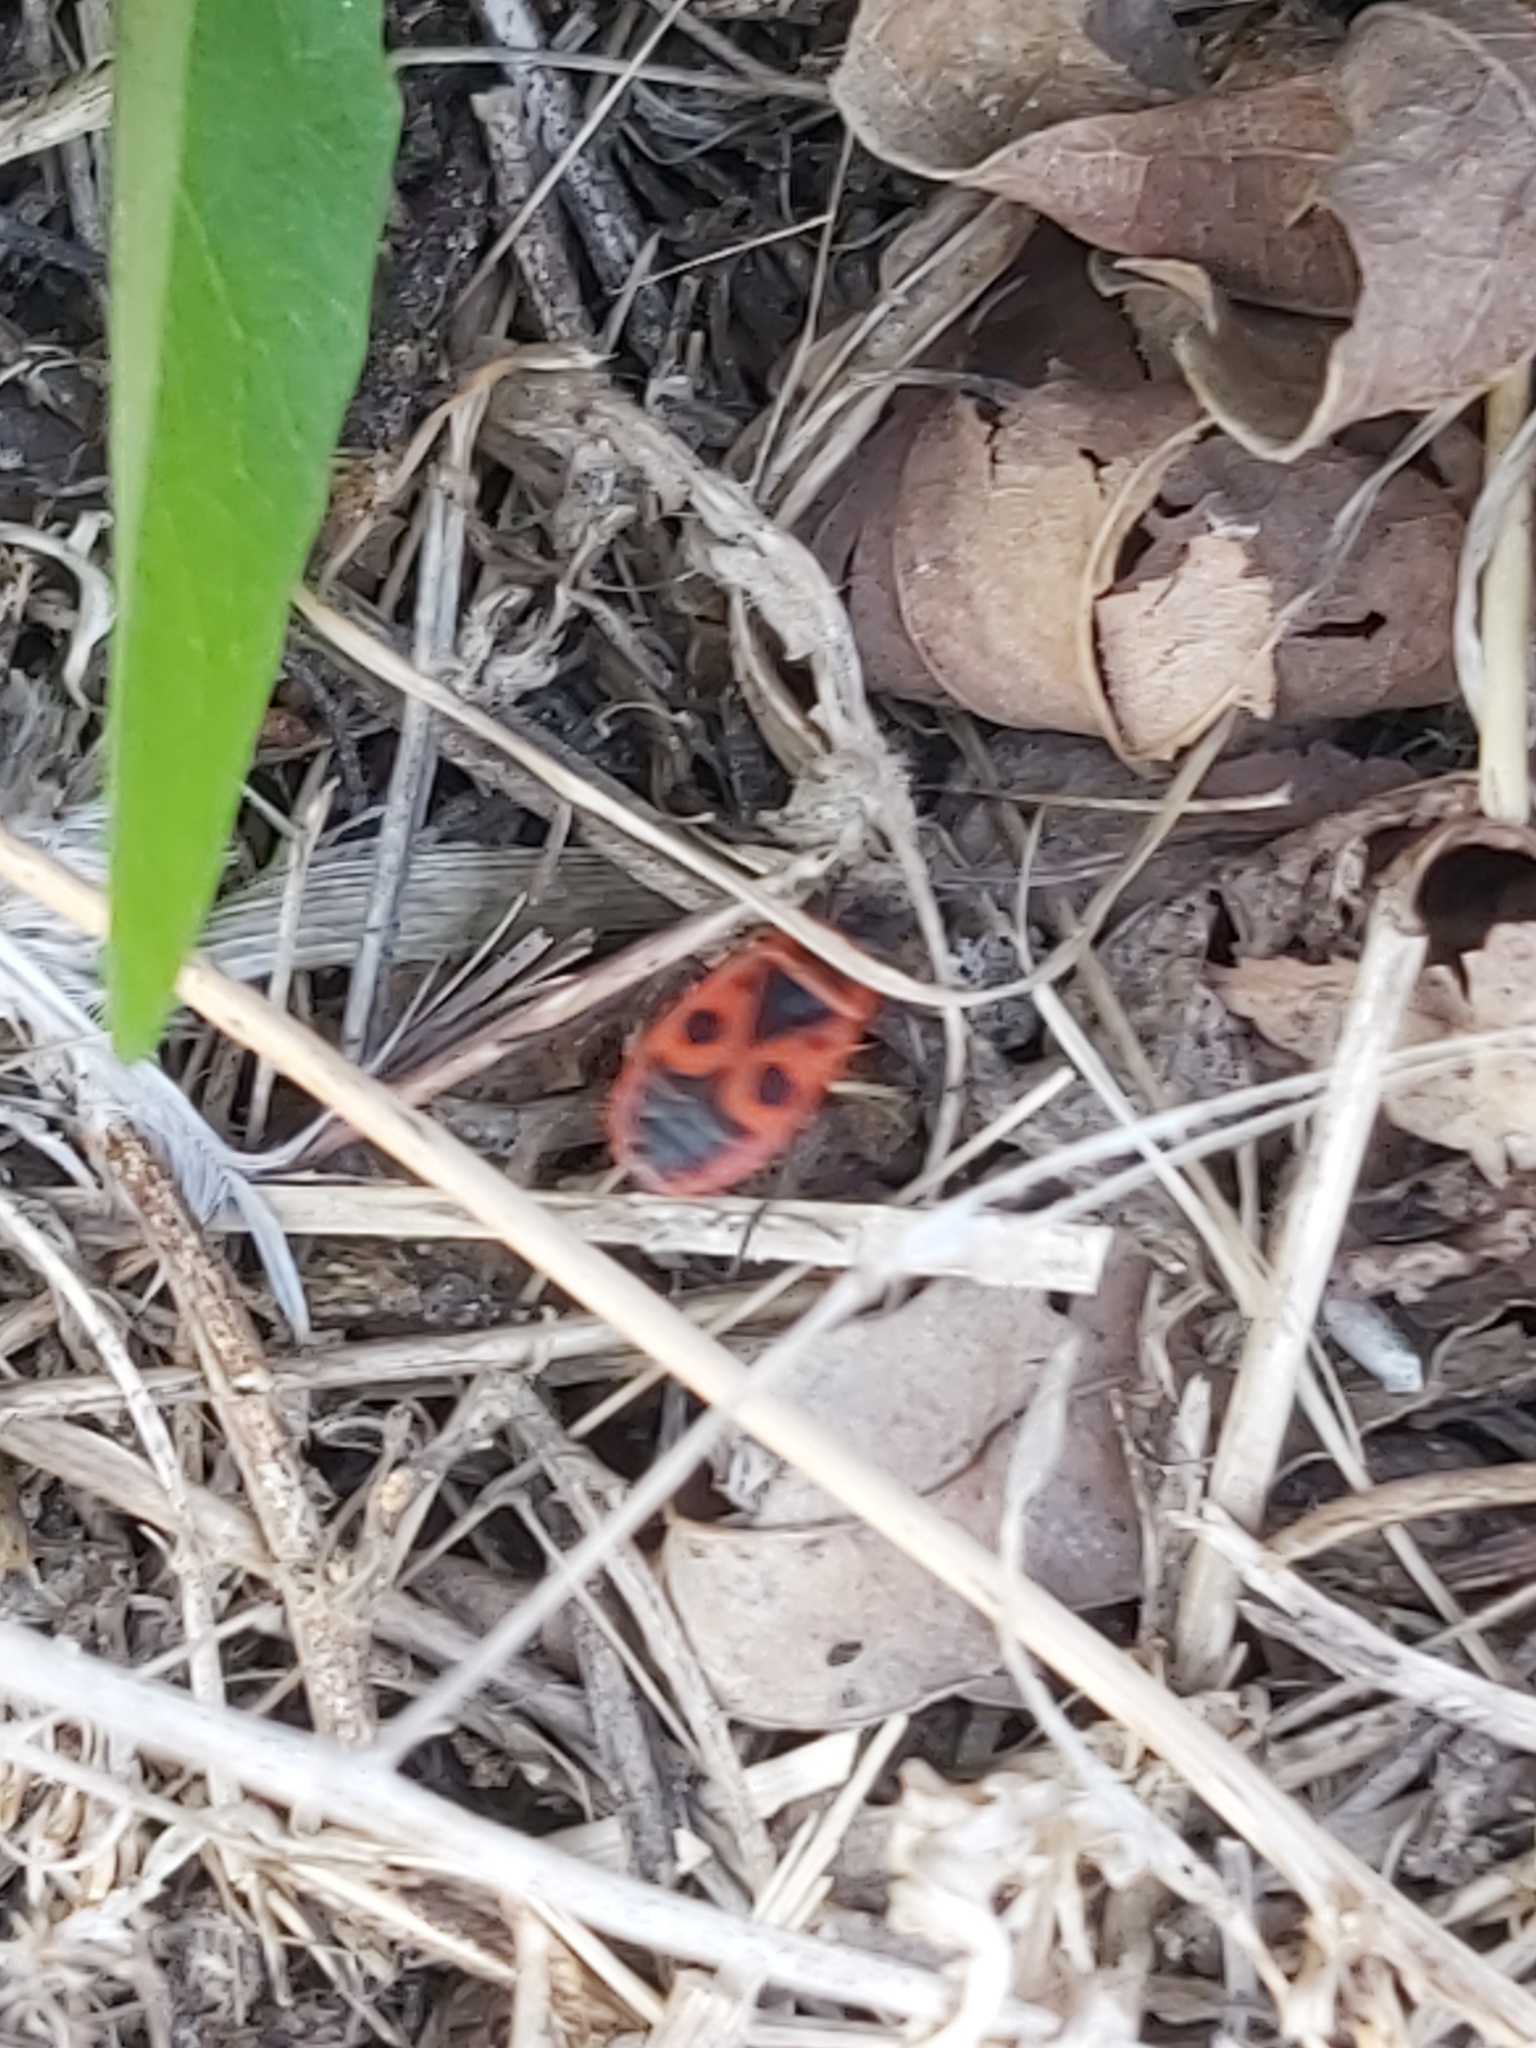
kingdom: Animalia
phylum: Arthropoda
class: Insecta
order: Hemiptera
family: Pyrrhocoridae
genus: Pyrrhocoris
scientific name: Pyrrhocoris apterus
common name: Firebug
